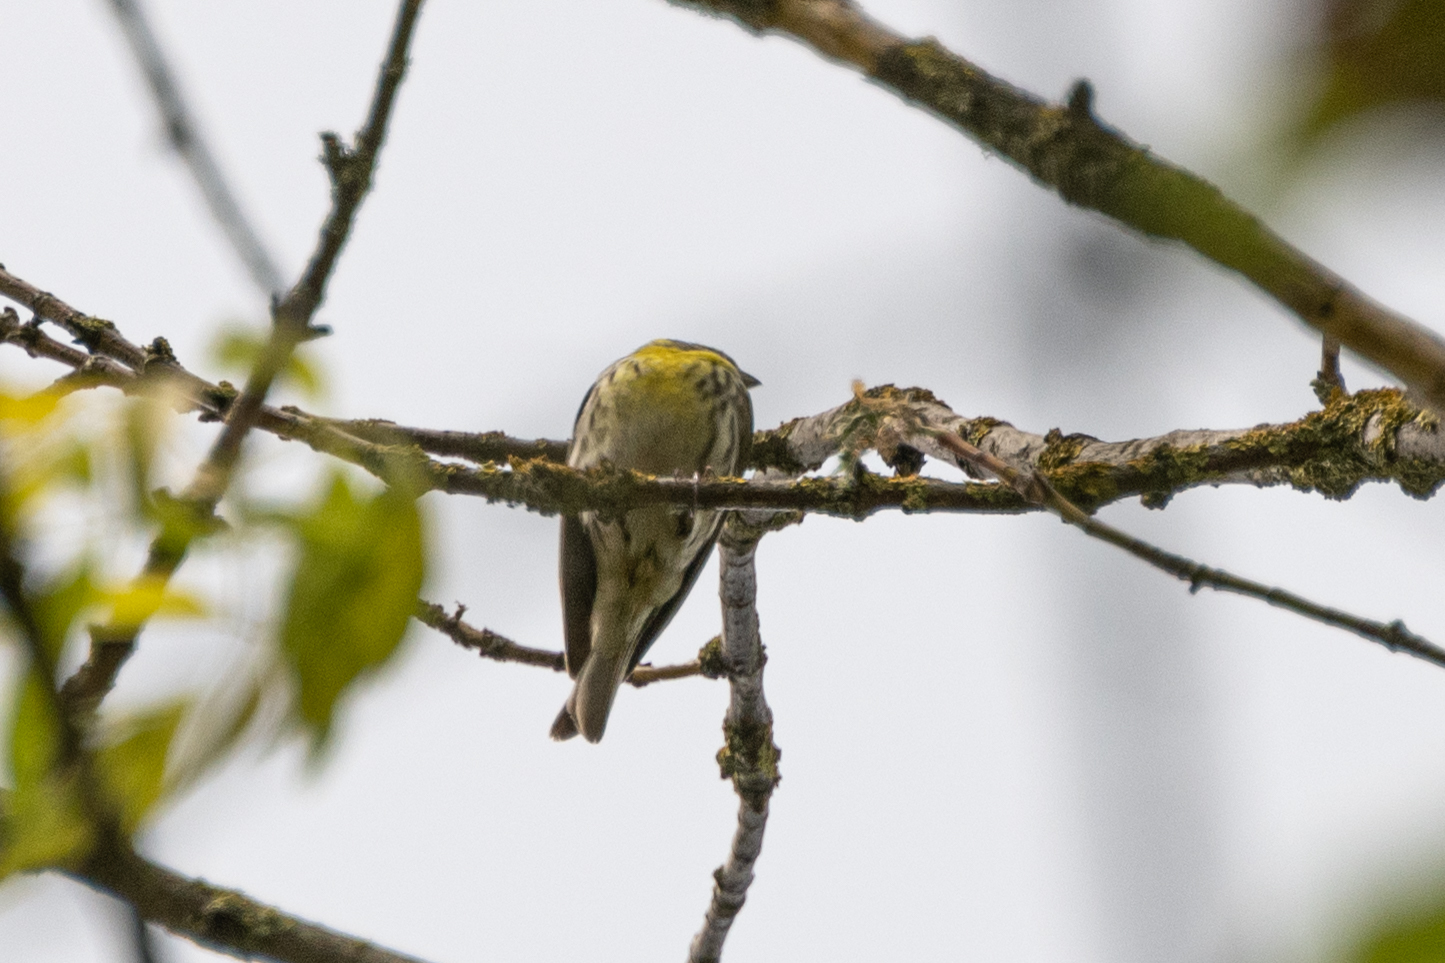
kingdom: Animalia
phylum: Chordata
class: Aves
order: Passeriformes
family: Fringillidae
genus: Serinus
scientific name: Serinus serinus
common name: European serin
